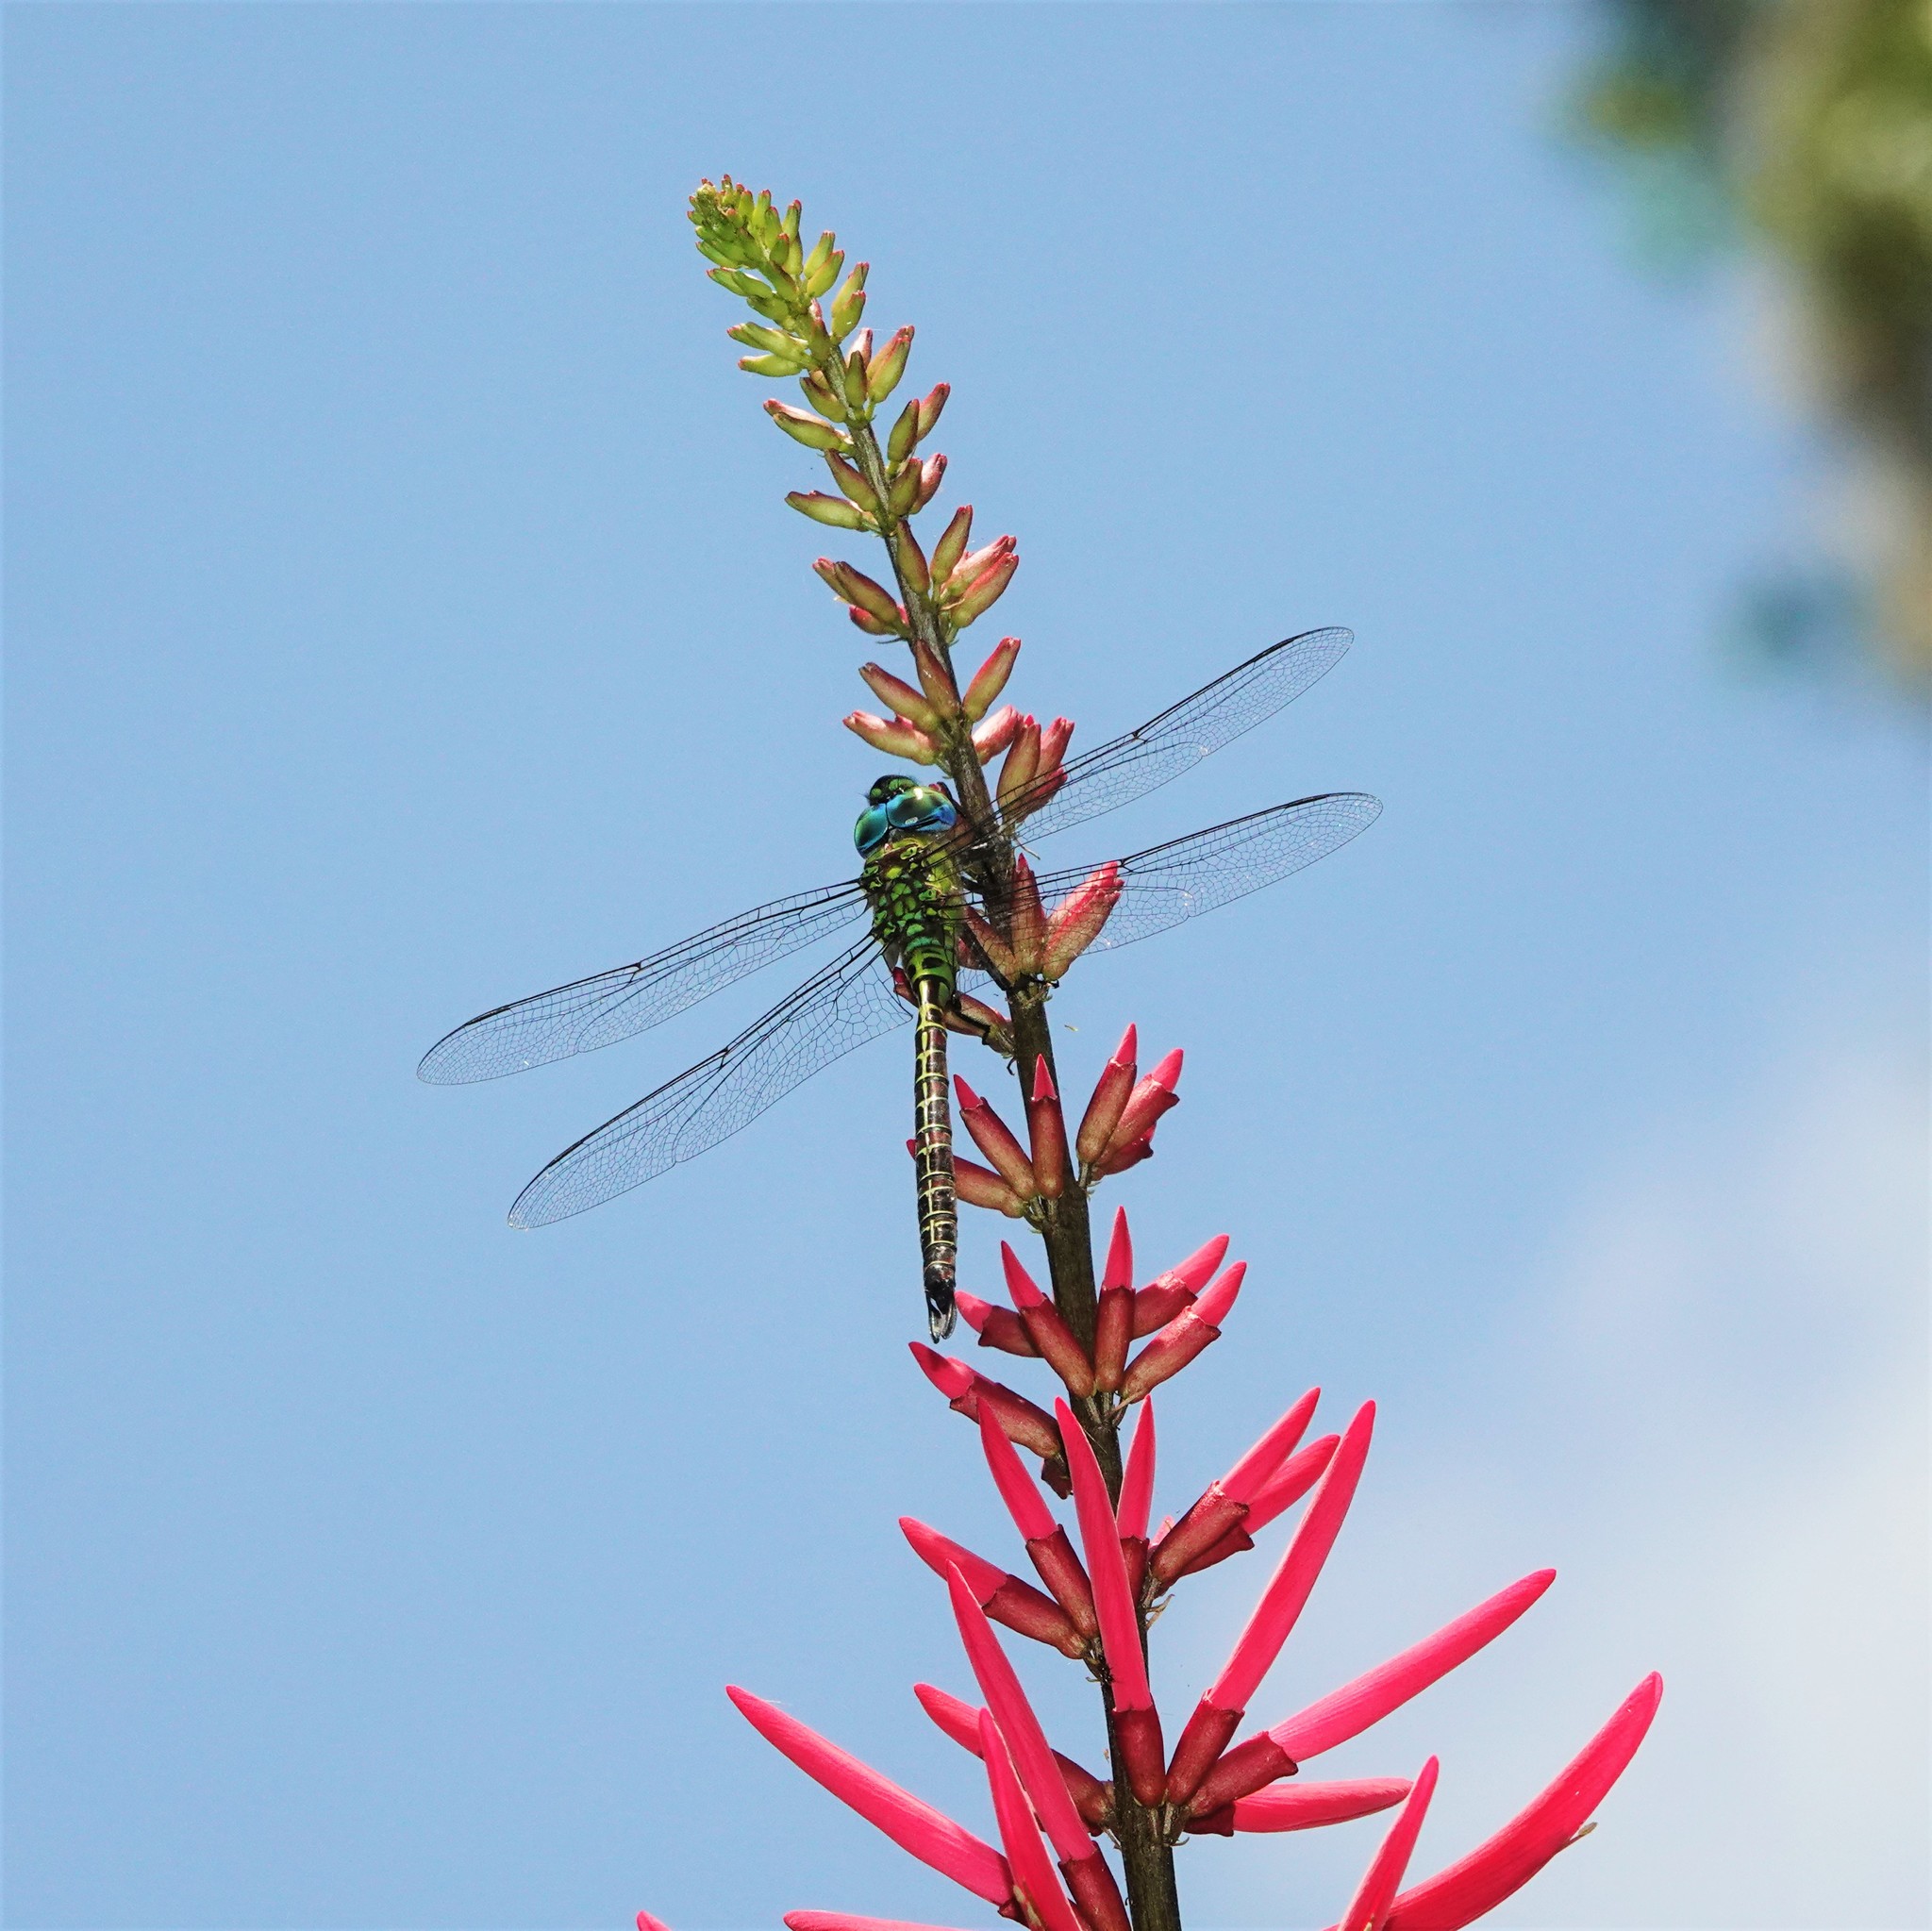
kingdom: Animalia
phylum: Arthropoda
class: Insecta
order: Odonata
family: Aeshnidae
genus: Coryphaeschna
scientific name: Coryphaeschna adnexa
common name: Blue-faced darner
